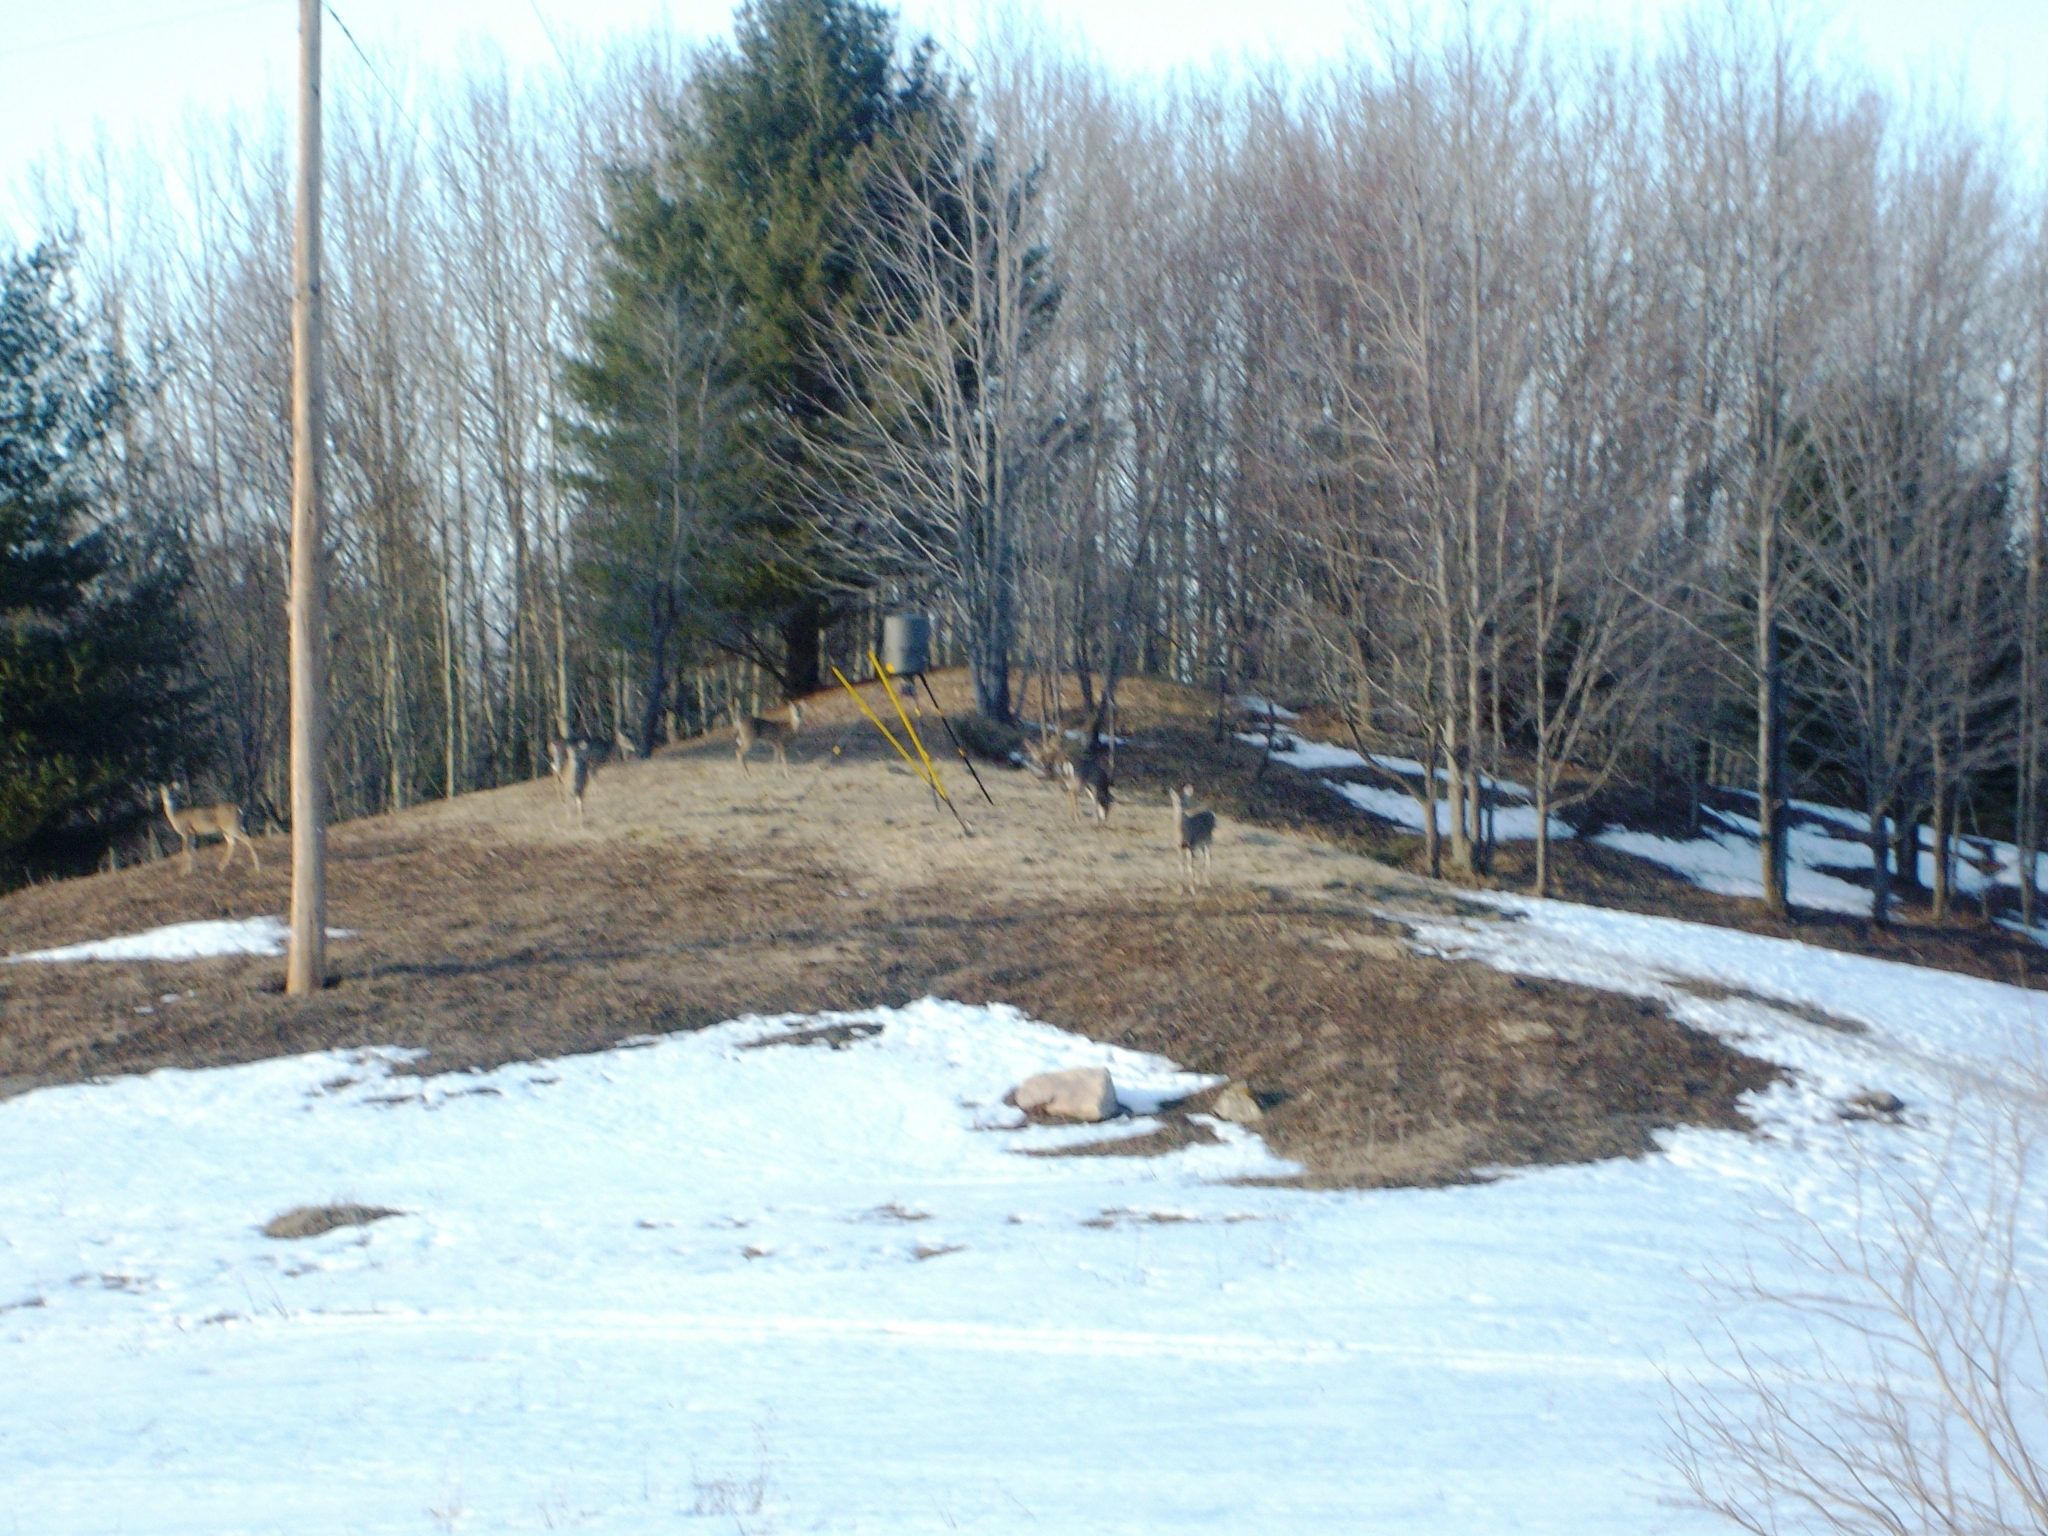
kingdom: Animalia
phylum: Chordata
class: Mammalia
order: Artiodactyla
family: Cervidae
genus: Odocoileus
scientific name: Odocoileus virginianus
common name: White-tailed deer
